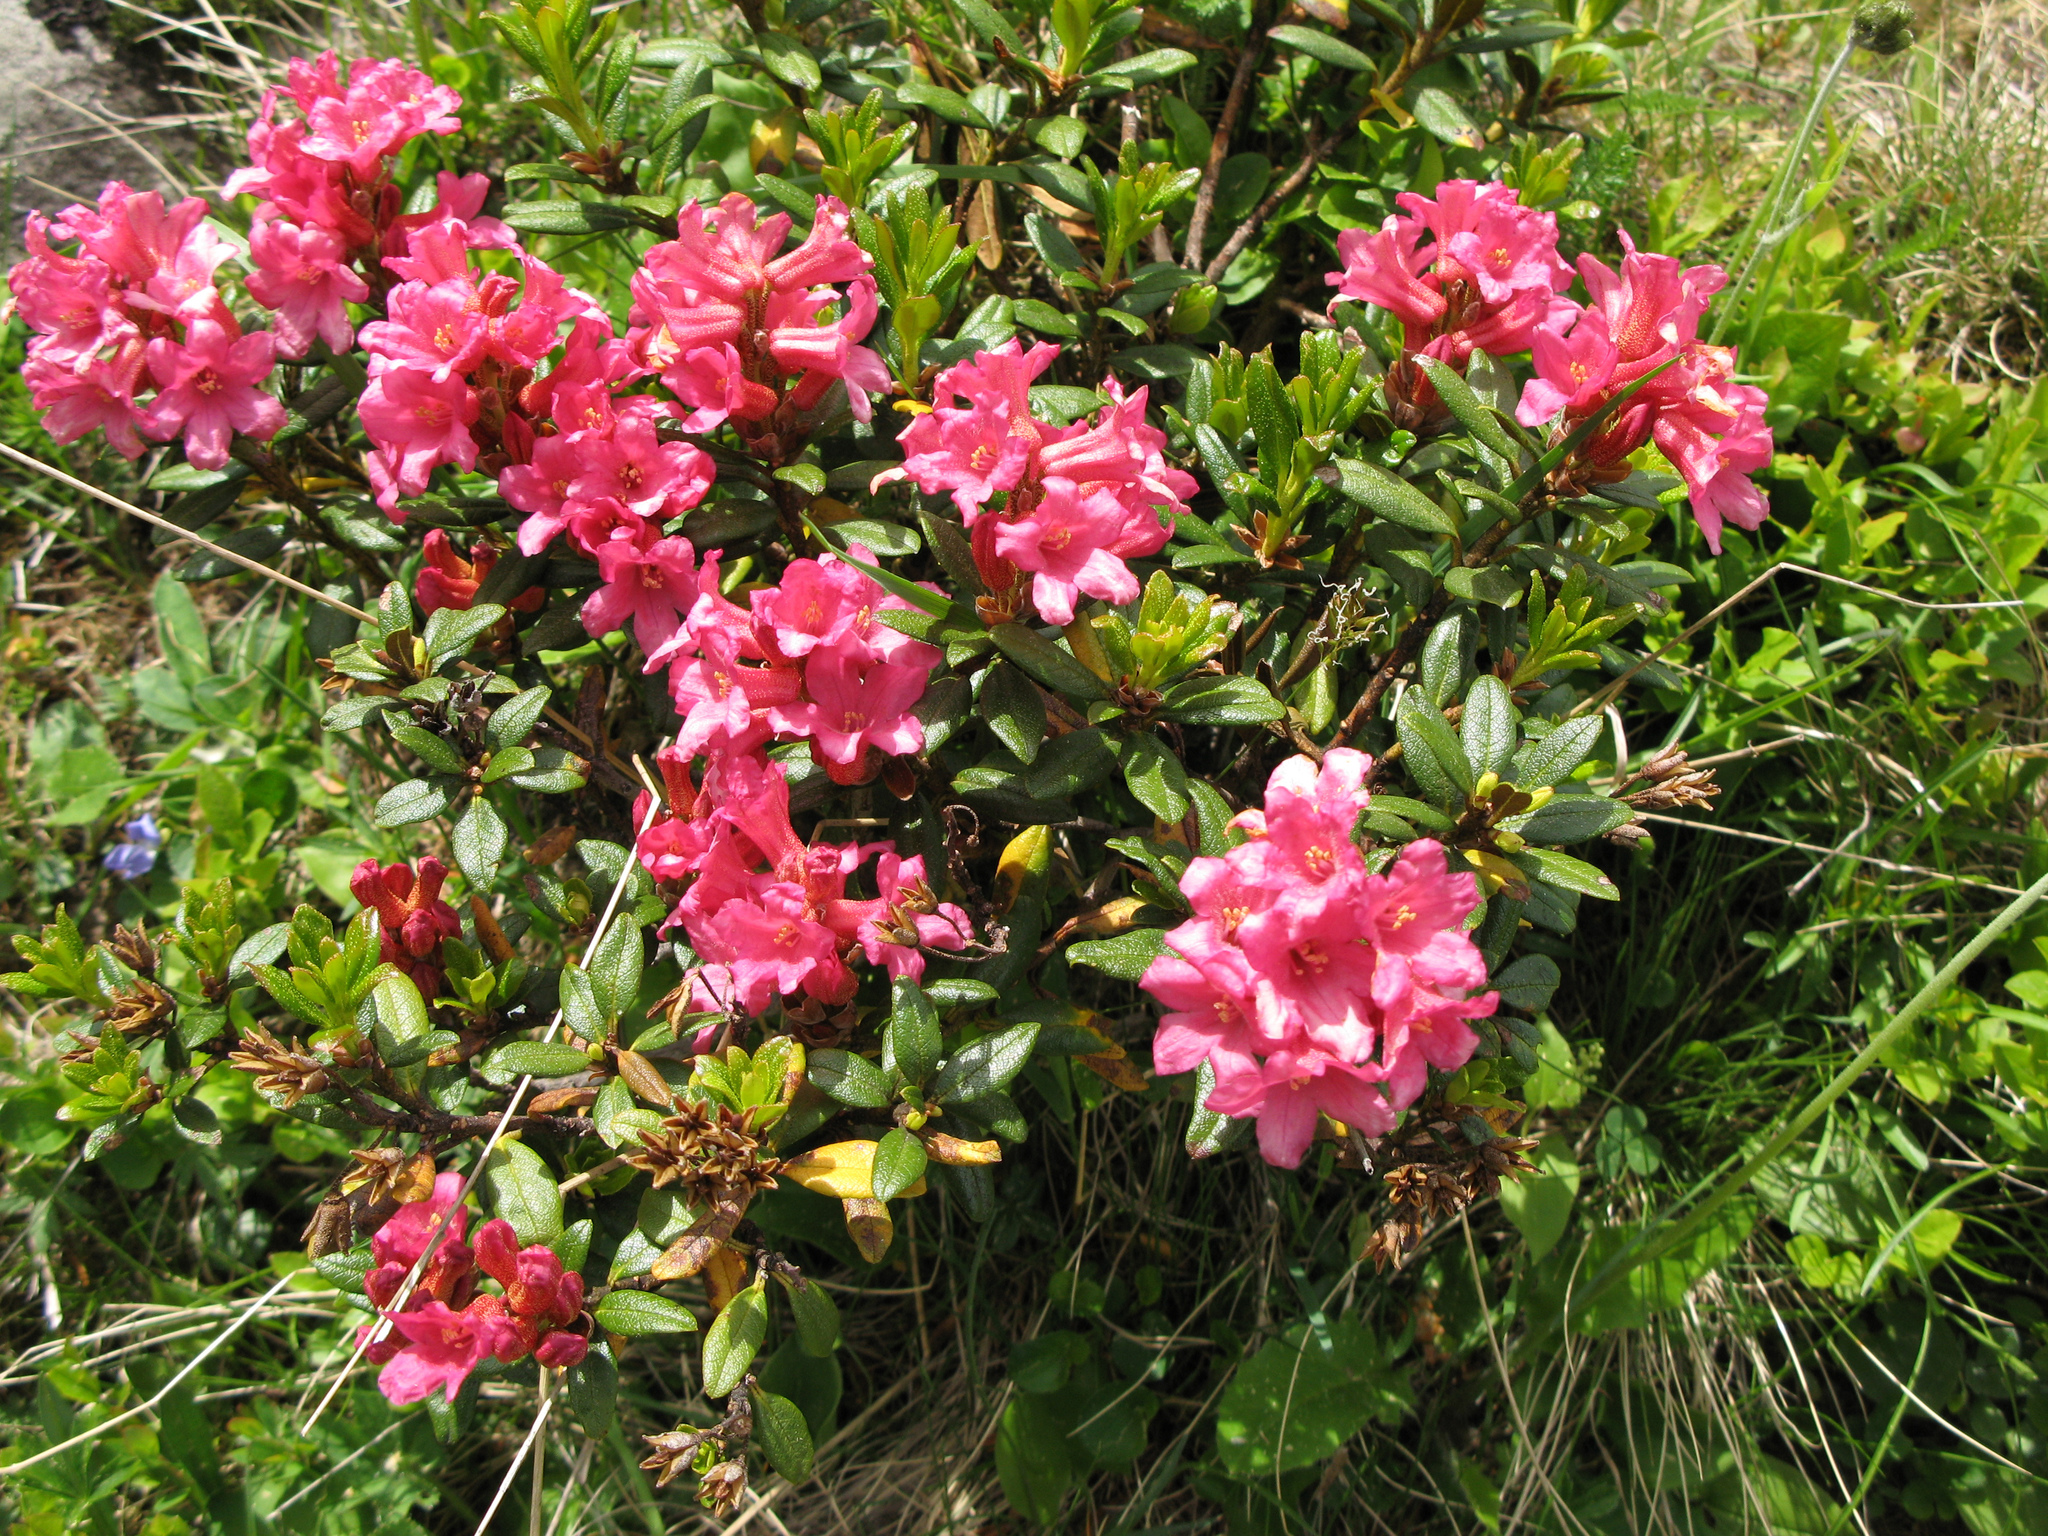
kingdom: Plantae
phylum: Tracheophyta
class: Magnoliopsida
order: Ericales
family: Ericaceae
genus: Rhododendron
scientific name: Rhododendron ferrugineum
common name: Alpenrose
